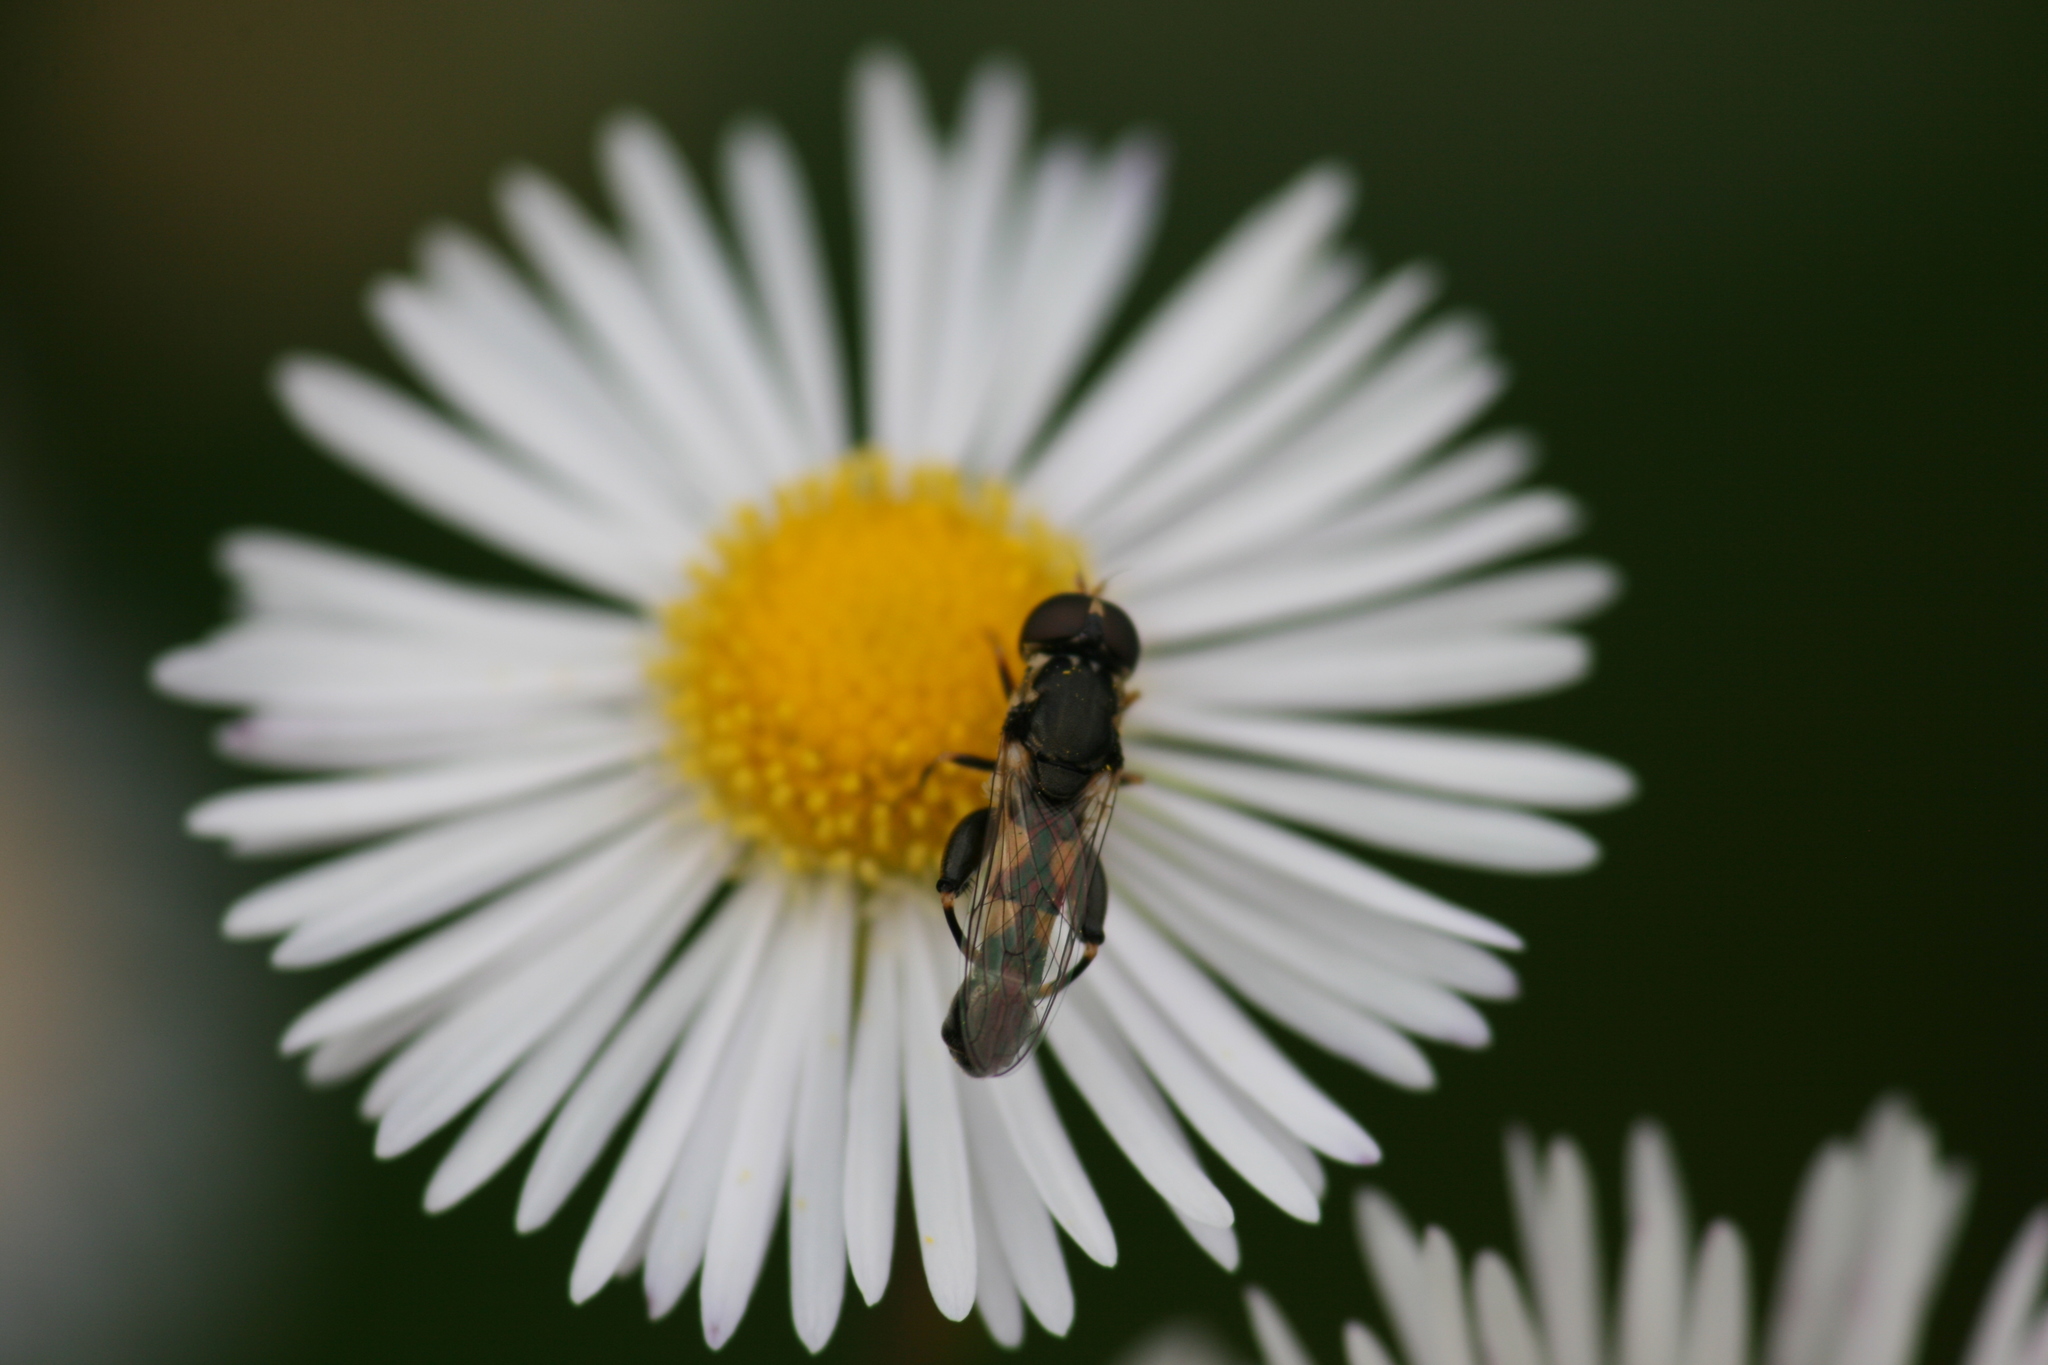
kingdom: Animalia
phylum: Arthropoda
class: Insecta
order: Diptera
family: Syrphidae
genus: Syritta
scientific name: Syritta pipiens
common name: Hover fly
